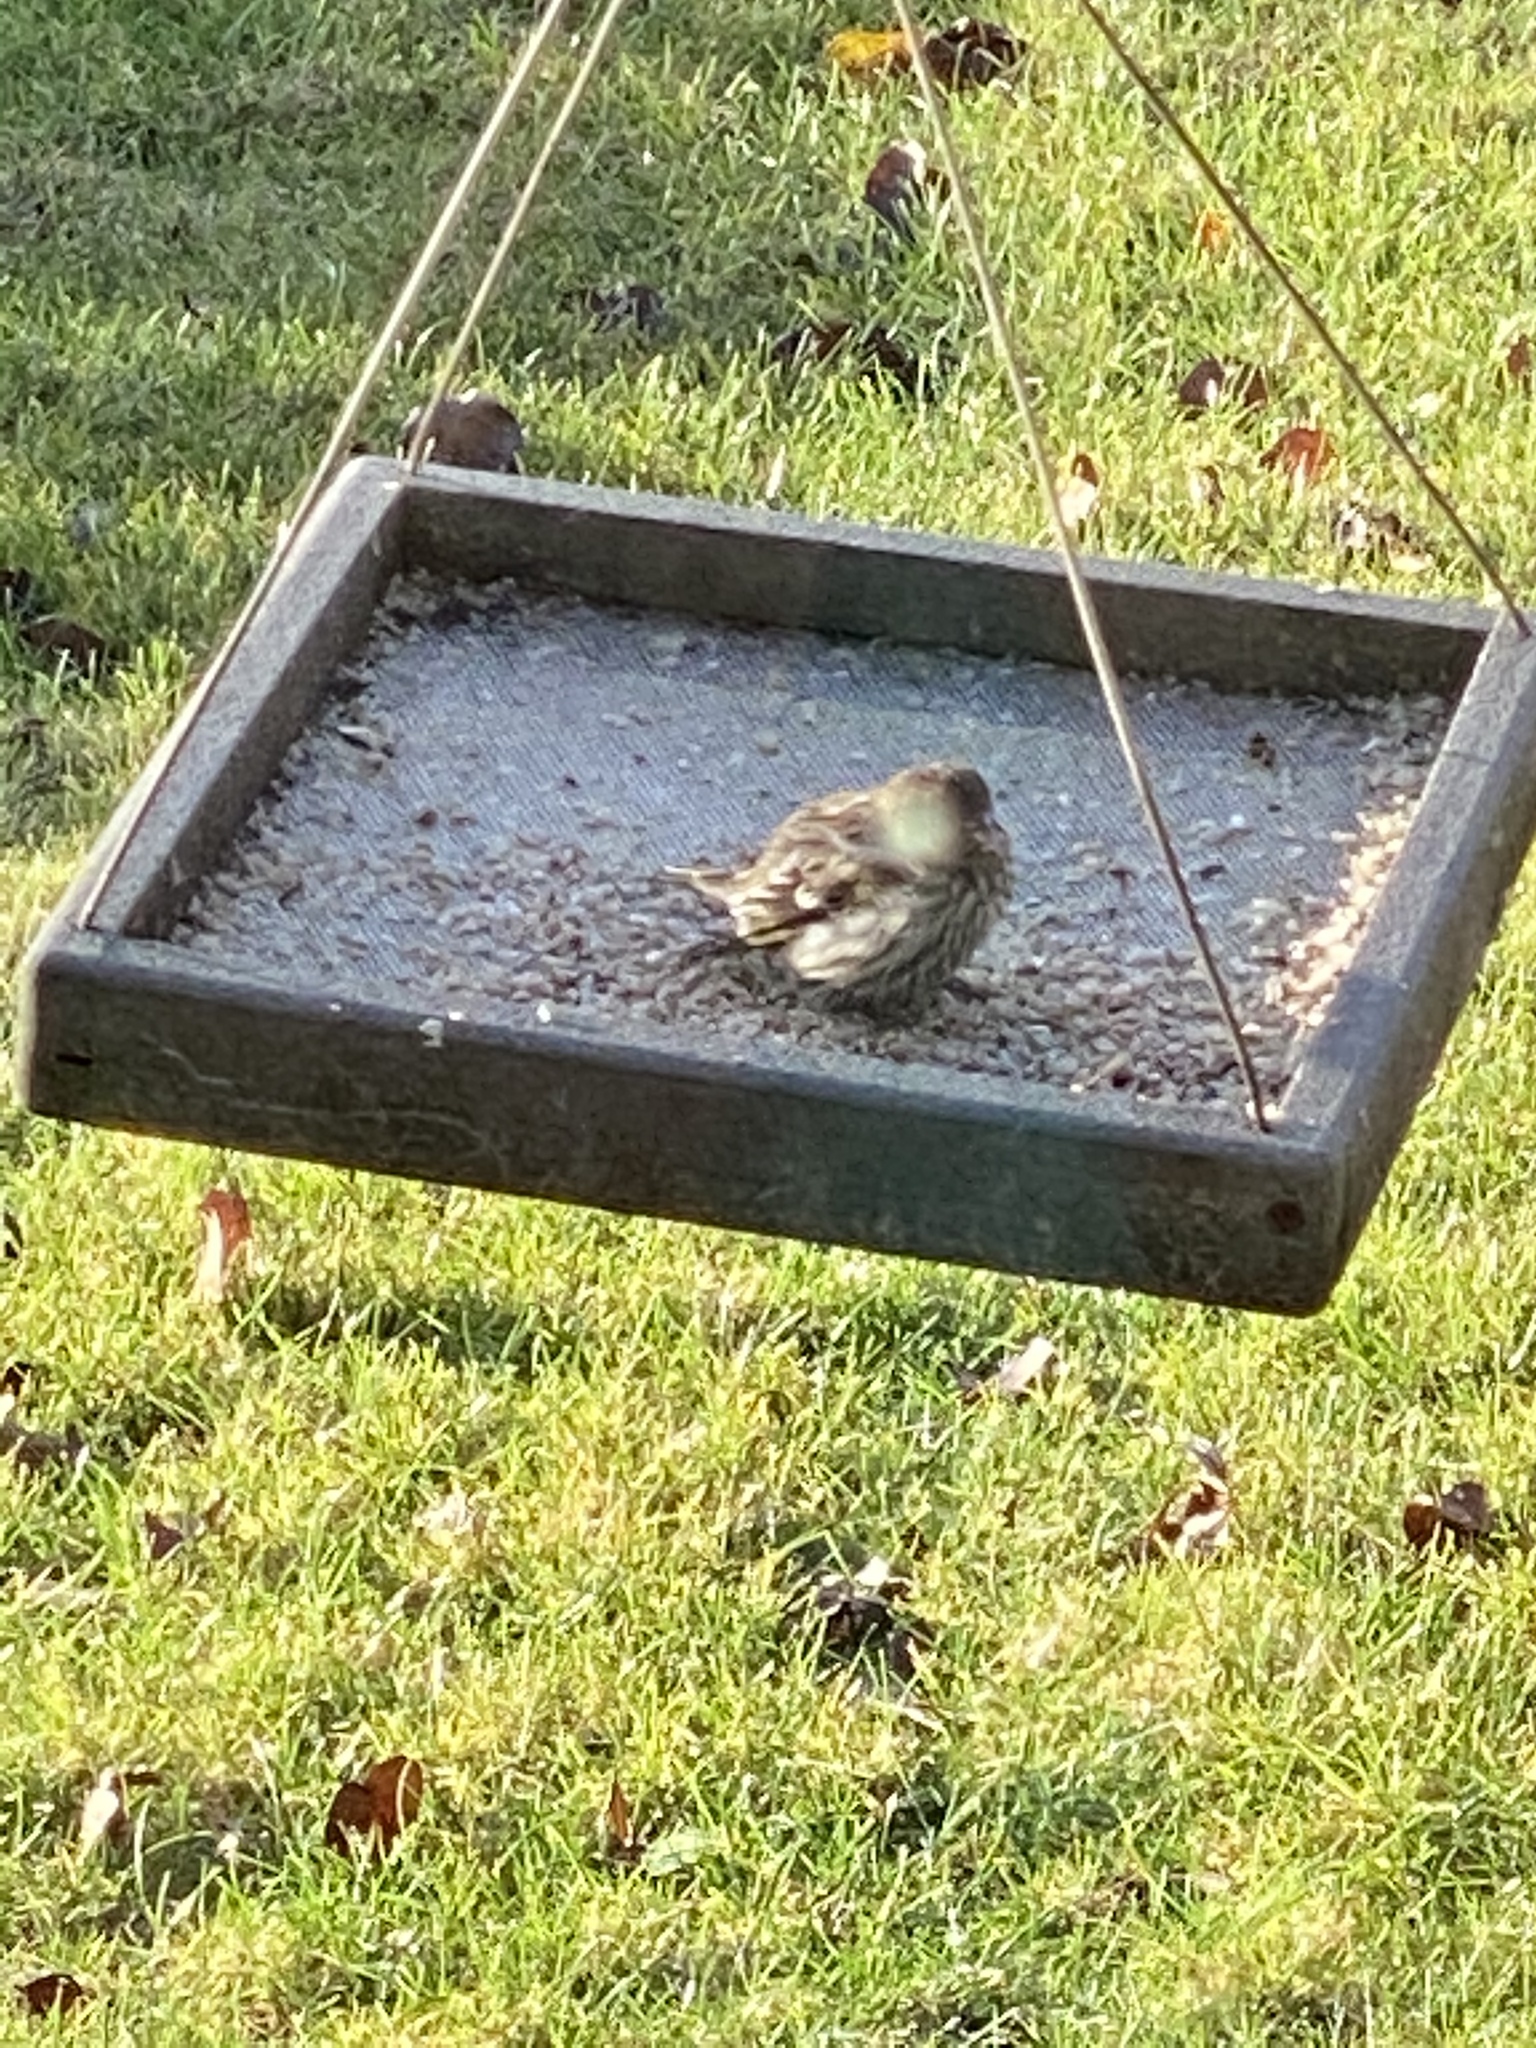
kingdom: Animalia
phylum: Chordata
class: Aves
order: Passeriformes
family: Fringillidae
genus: Spinus
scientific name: Spinus pinus
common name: Pine siskin
